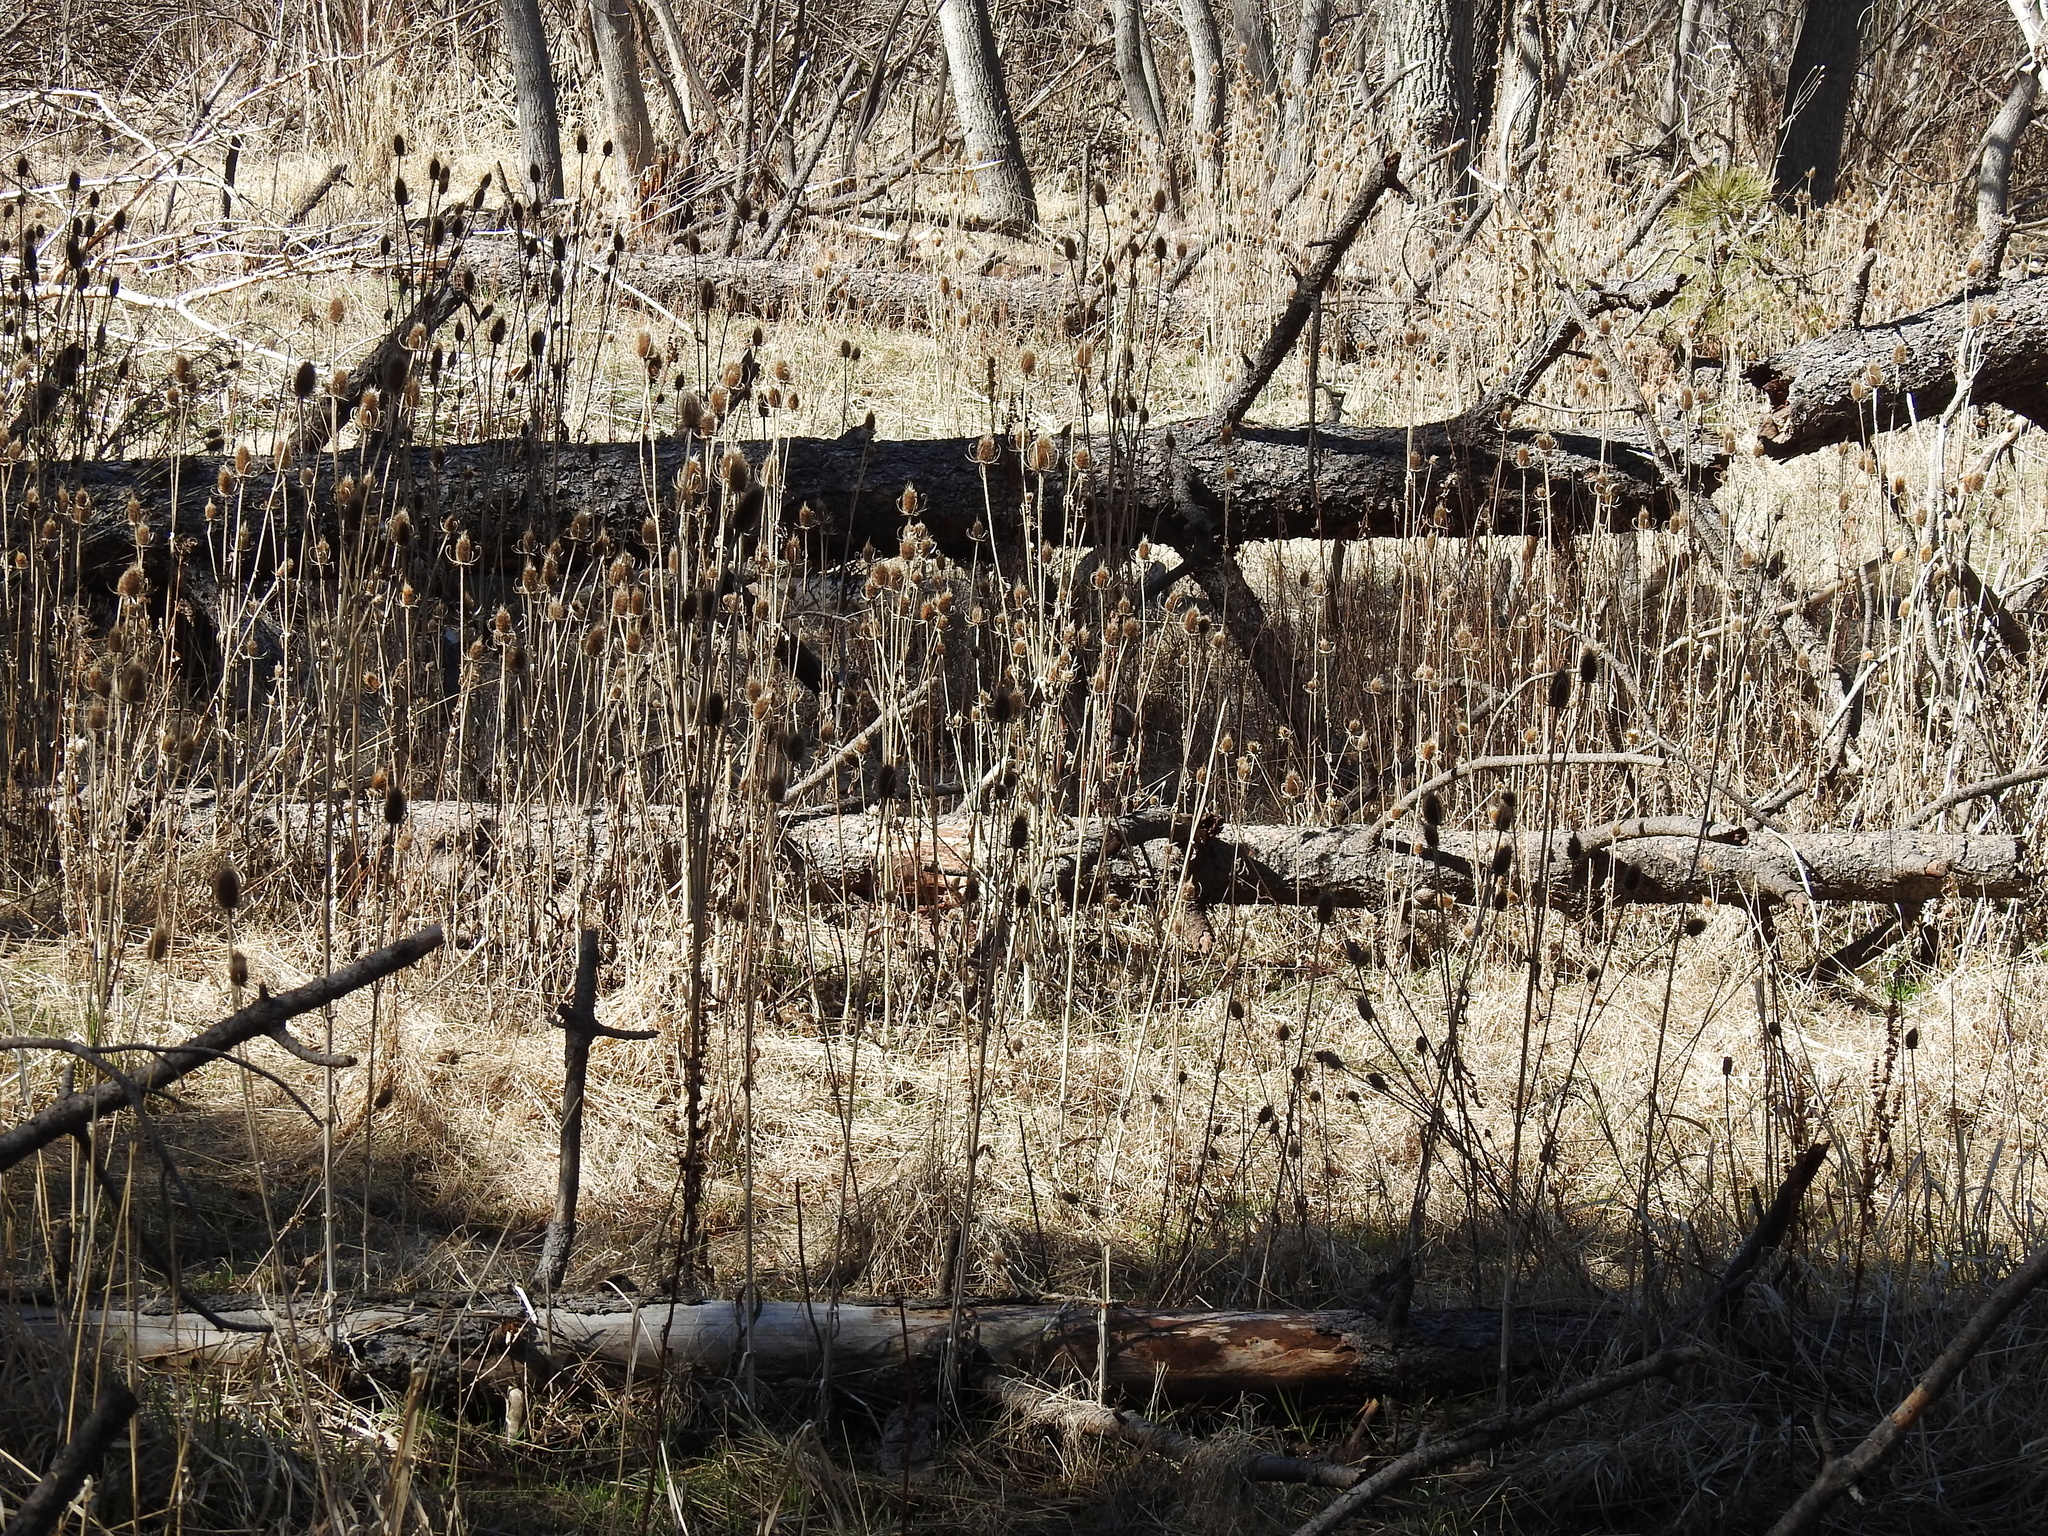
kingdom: Plantae
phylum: Tracheophyta
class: Magnoliopsida
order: Dipsacales
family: Caprifoliaceae
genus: Dipsacus
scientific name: Dipsacus fullonum
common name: Teasel
